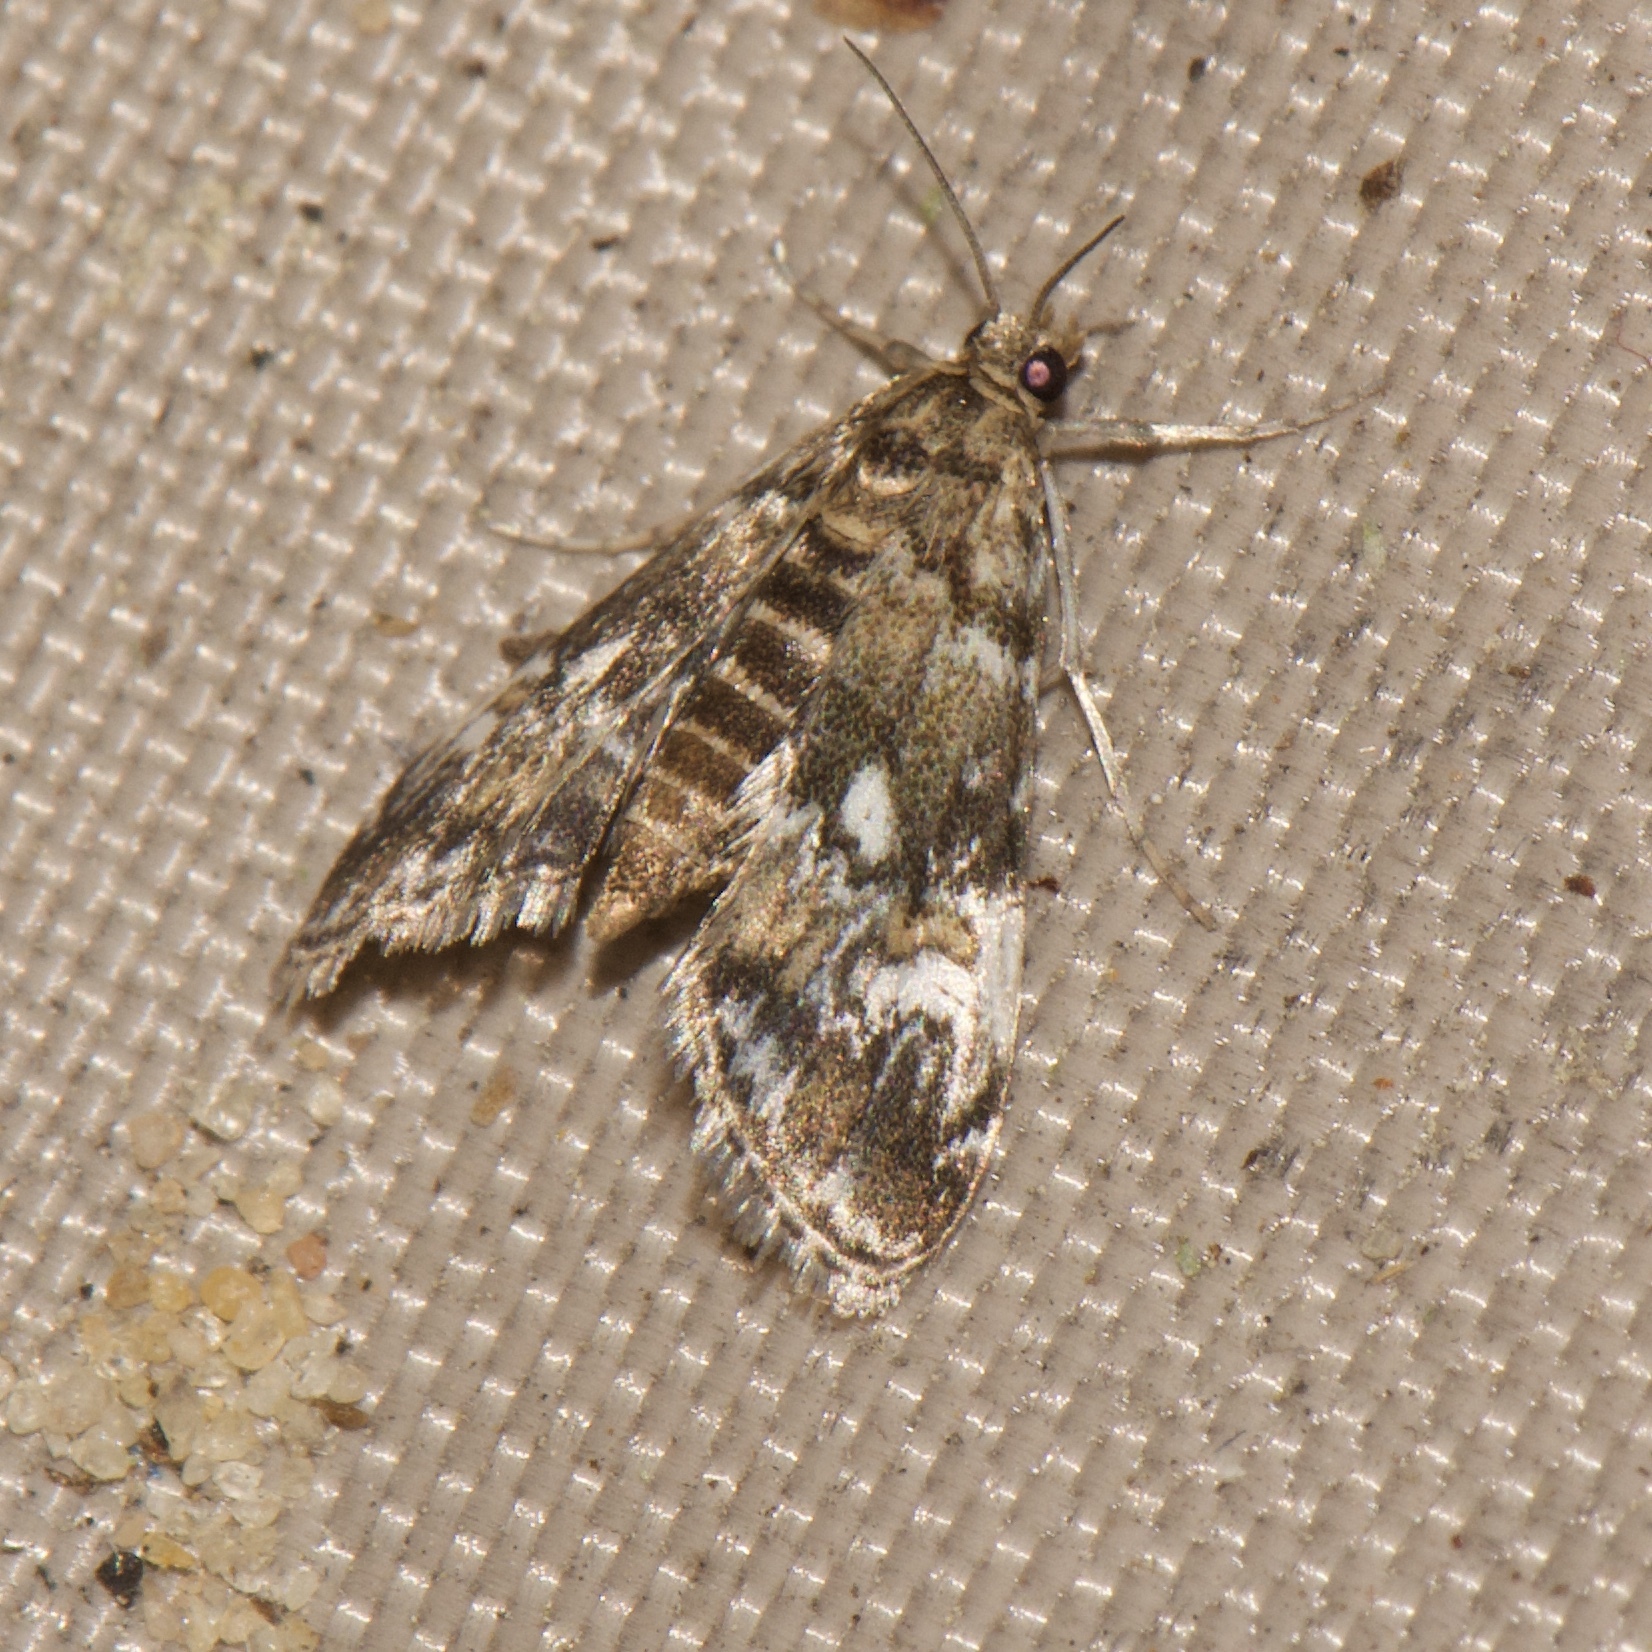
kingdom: Animalia
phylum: Arthropoda
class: Insecta
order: Lepidoptera
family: Crambidae
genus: Elophila
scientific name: Elophila obliteralis
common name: Waterlily leafcutter moth
